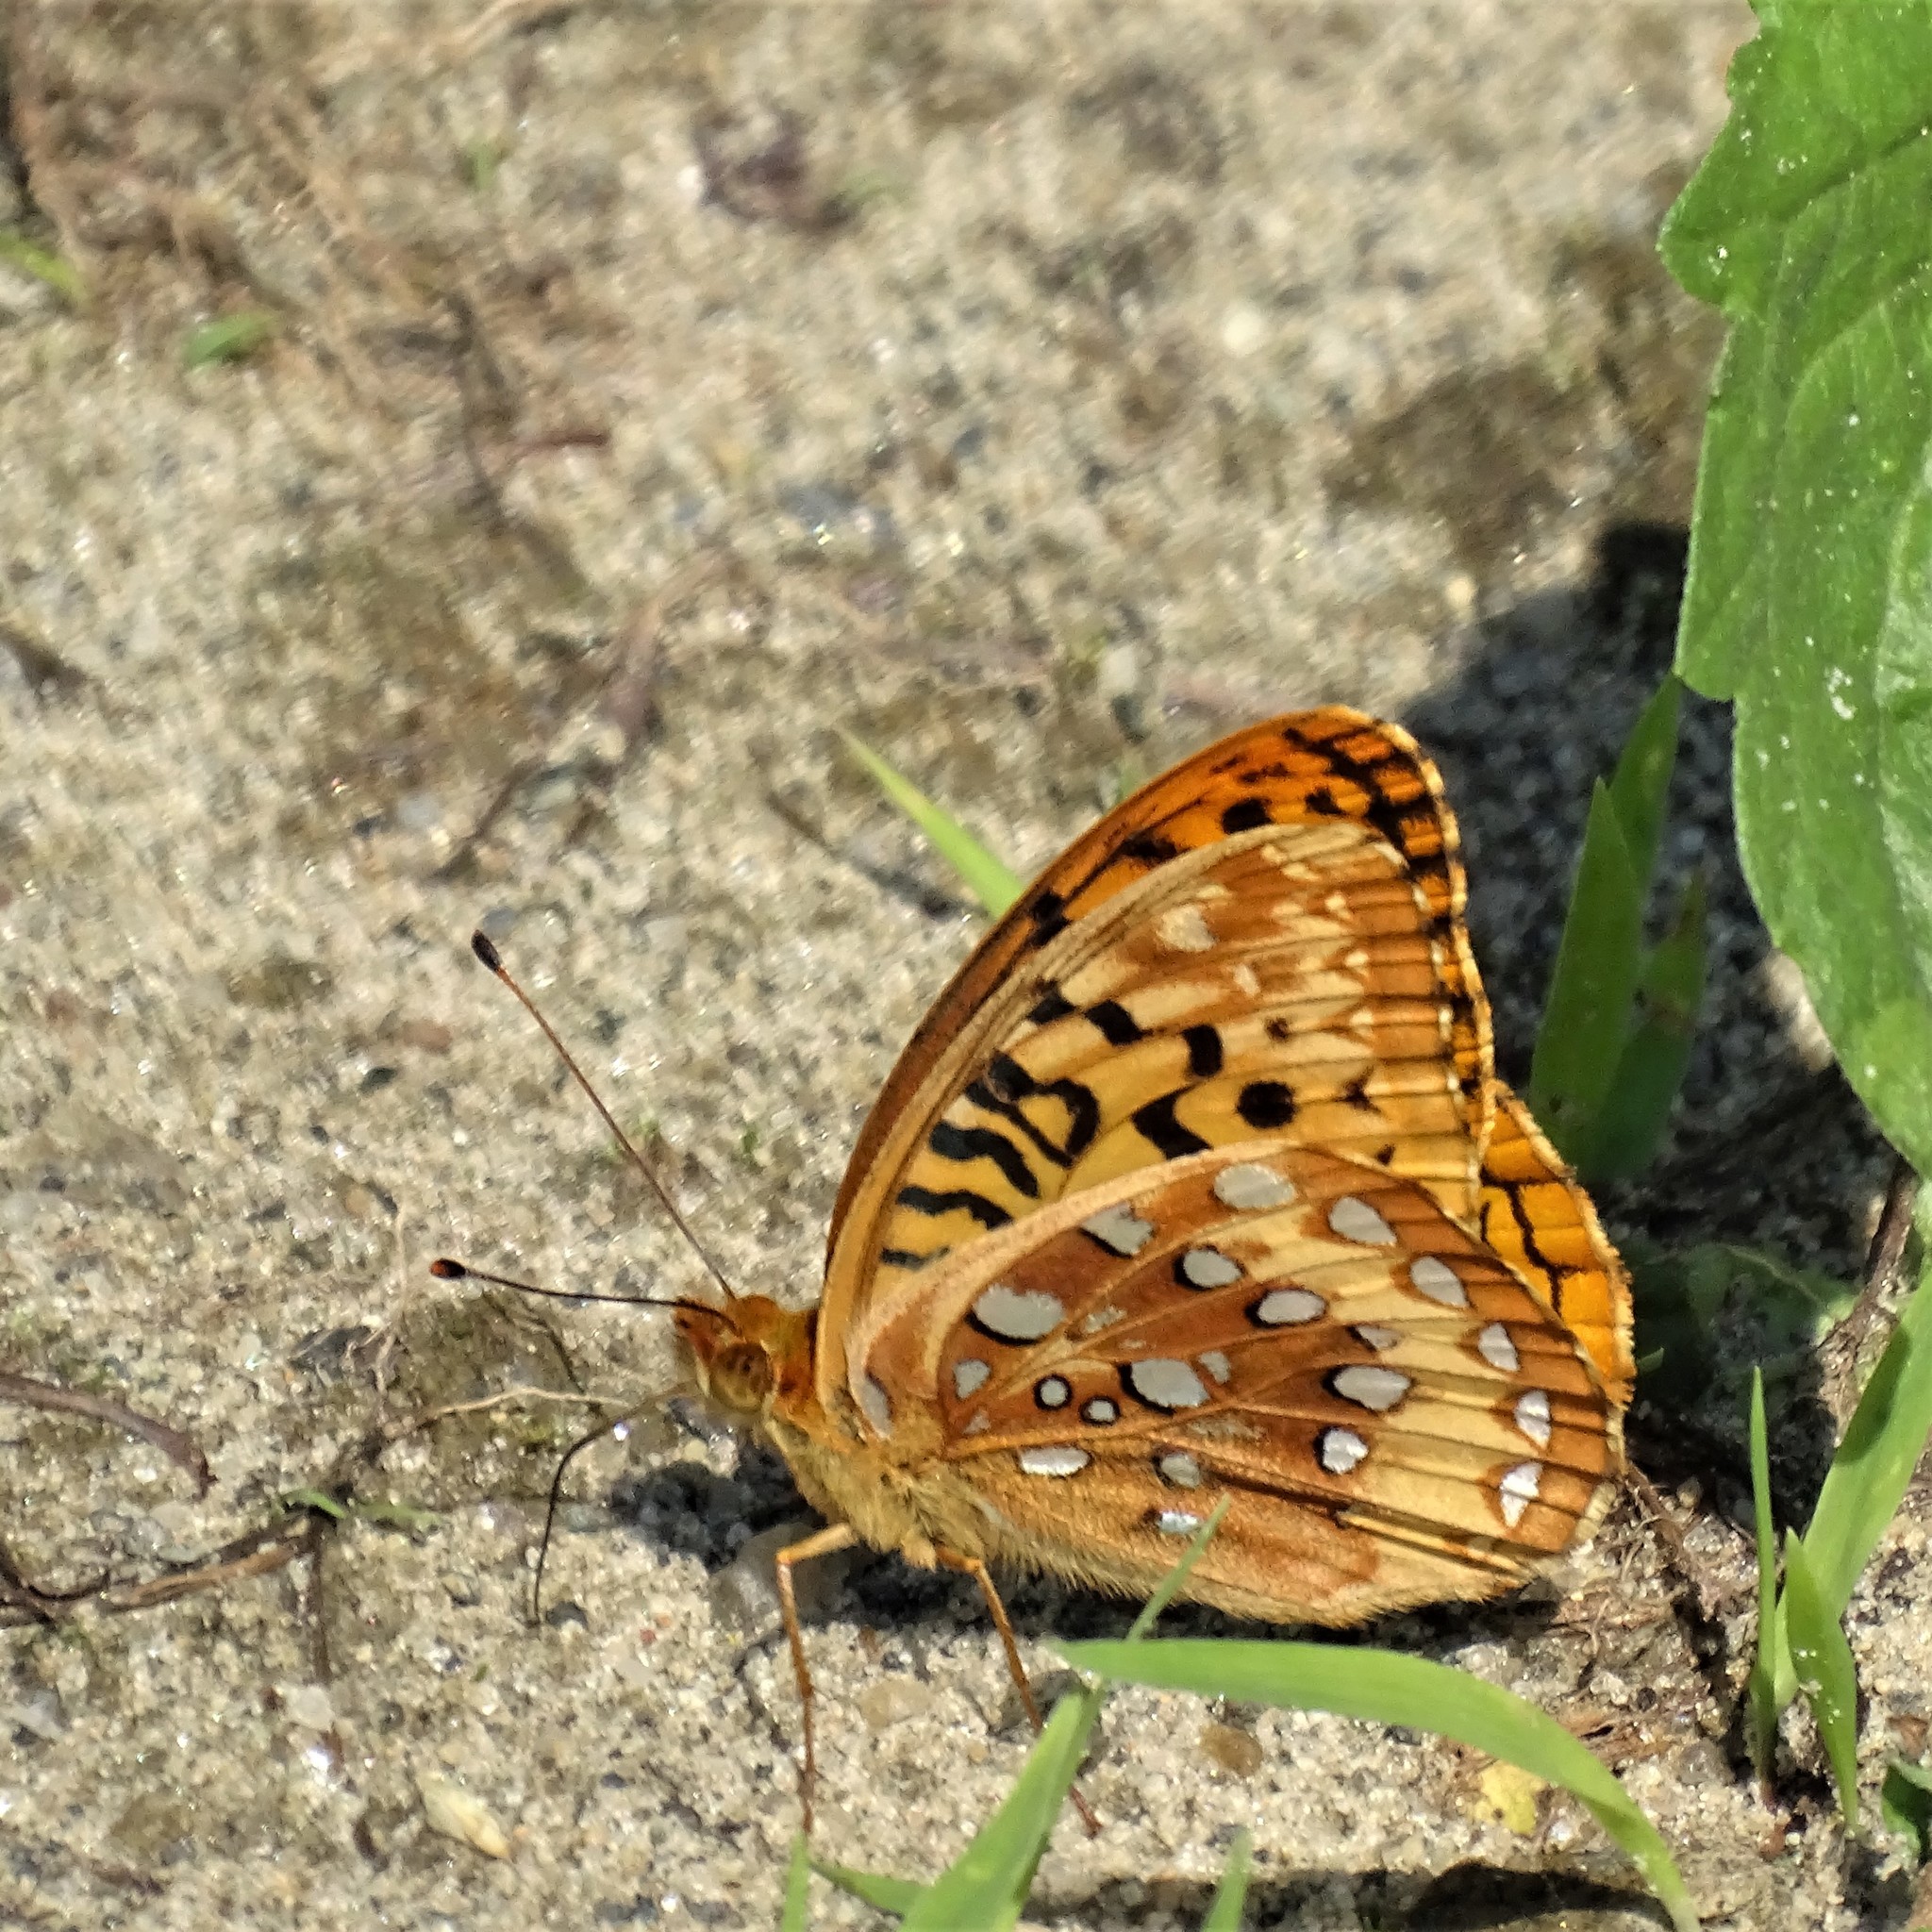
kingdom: Animalia
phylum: Arthropoda
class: Insecta
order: Lepidoptera
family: Nymphalidae
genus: Speyeria
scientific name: Speyeria cybele
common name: Great spangled fritillary
